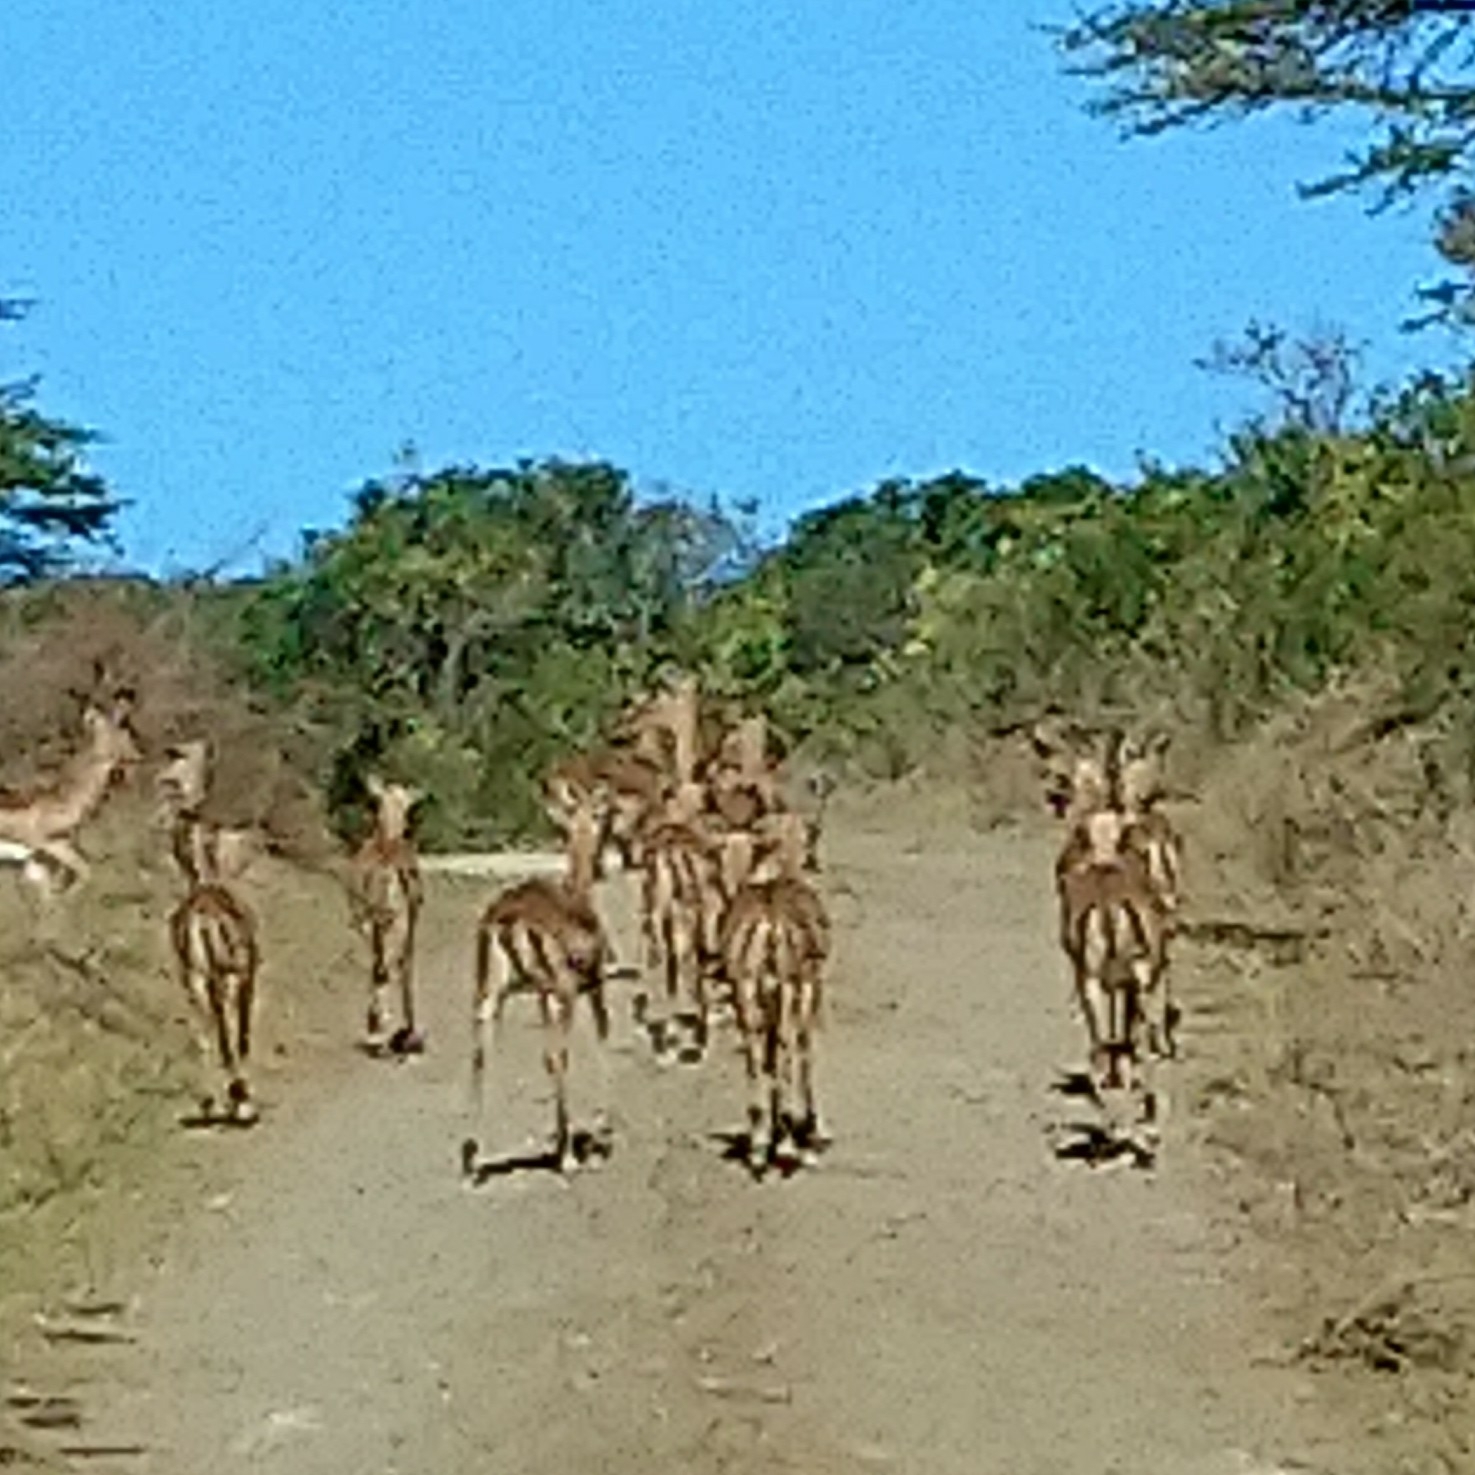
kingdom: Animalia
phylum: Chordata
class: Mammalia
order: Artiodactyla
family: Bovidae
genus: Aepyceros
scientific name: Aepyceros melampus
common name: Impala
